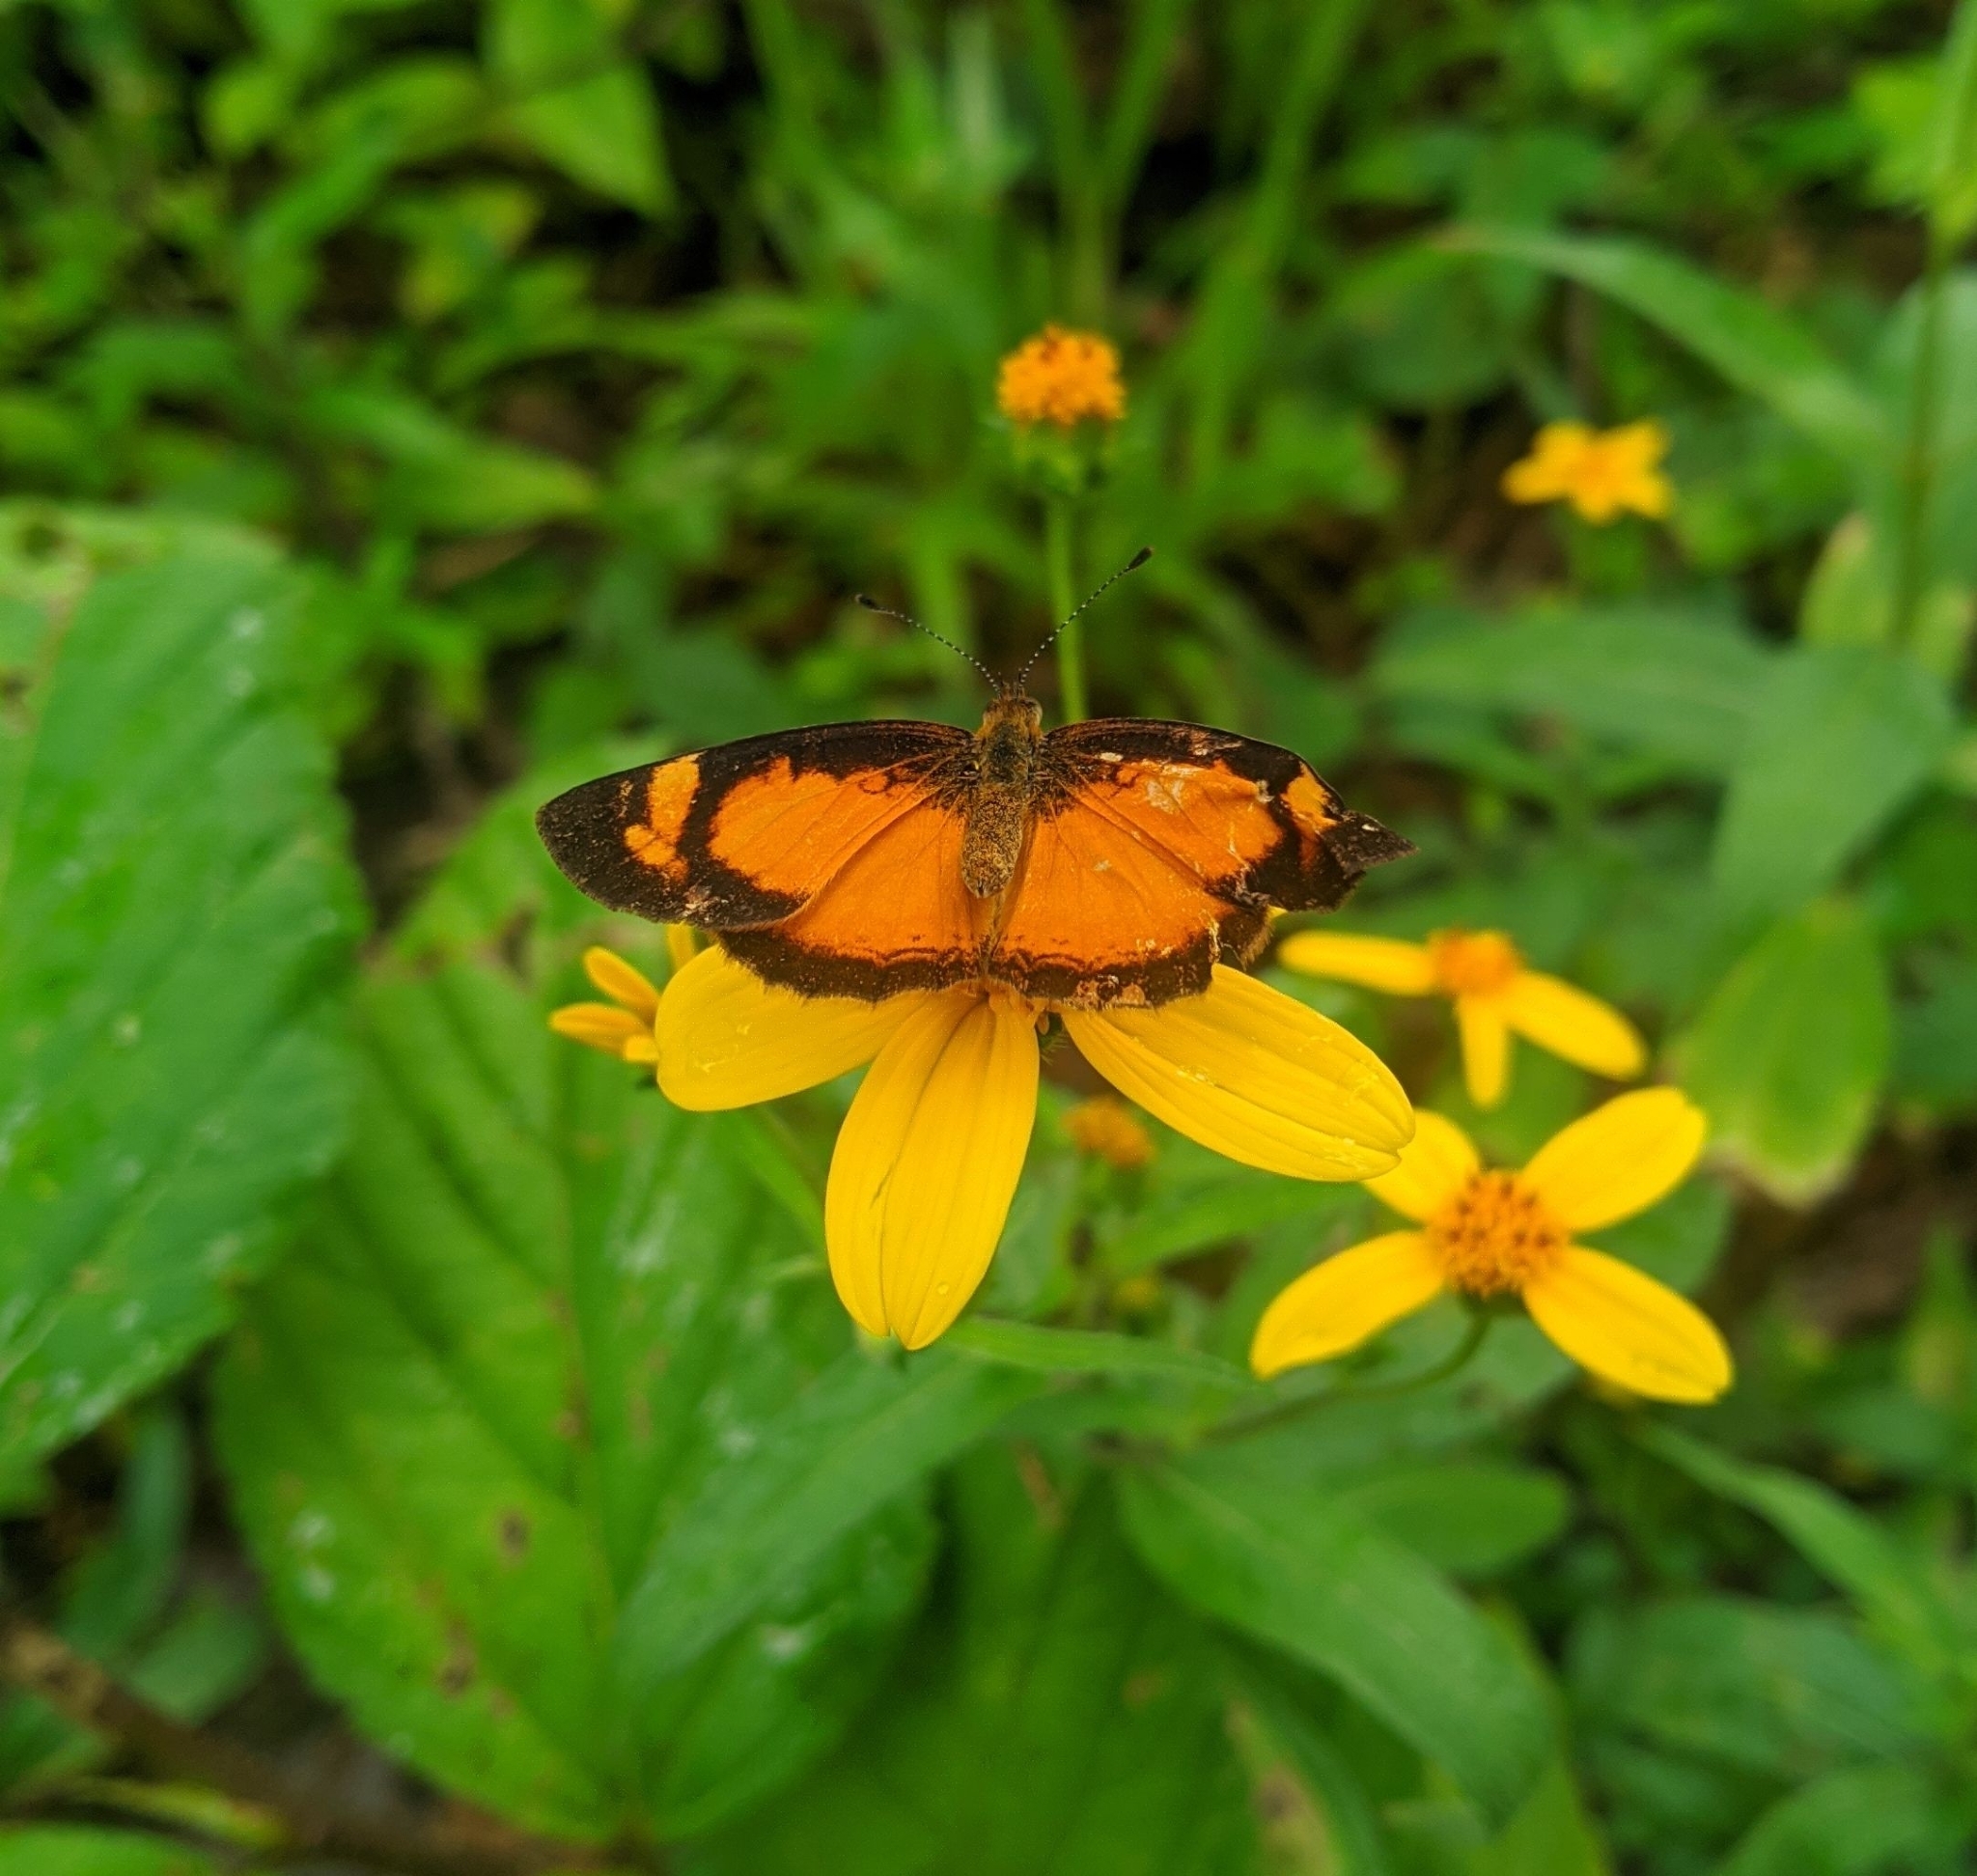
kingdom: Animalia
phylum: Arthropoda
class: Insecta
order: Lepidoptera
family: Nymphalidae
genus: Tegosa
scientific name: Tegosa anieta
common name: Black-bordered crescent
